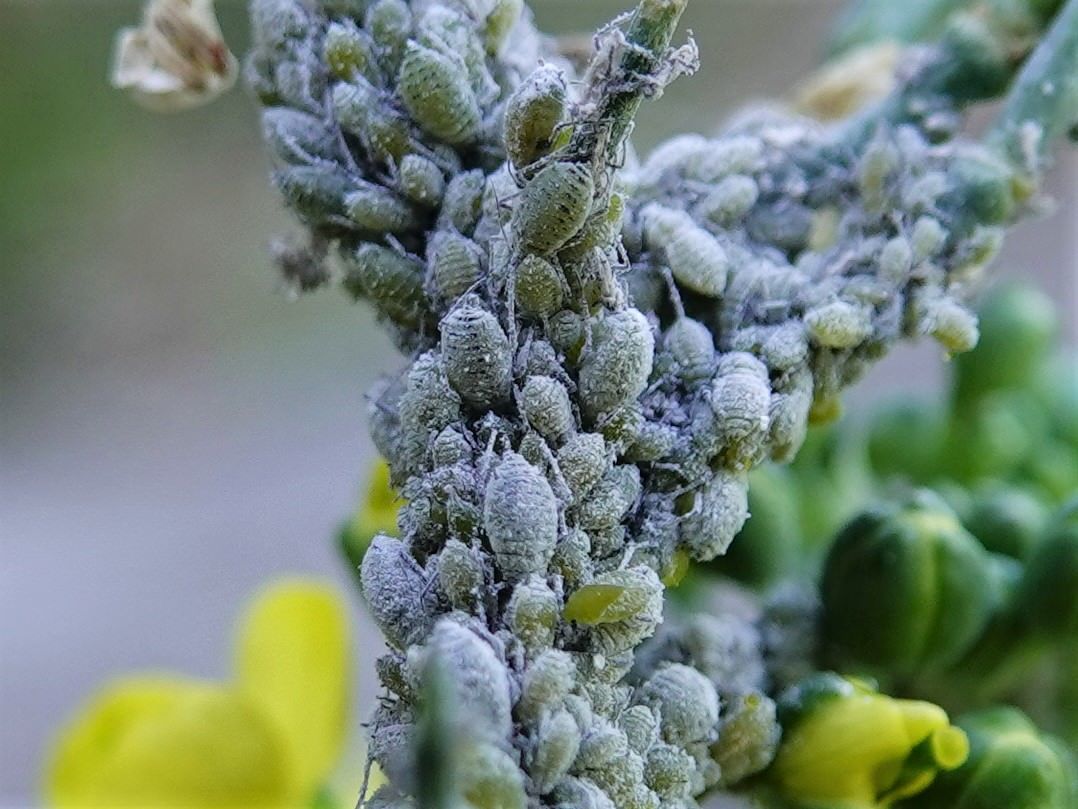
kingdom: Animalia
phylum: Arthropoda
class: Insecta
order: Hemiptera
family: Aphididae
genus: Brevicoryne
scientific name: Brevicoryne brassicae
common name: Cabbage aphid
